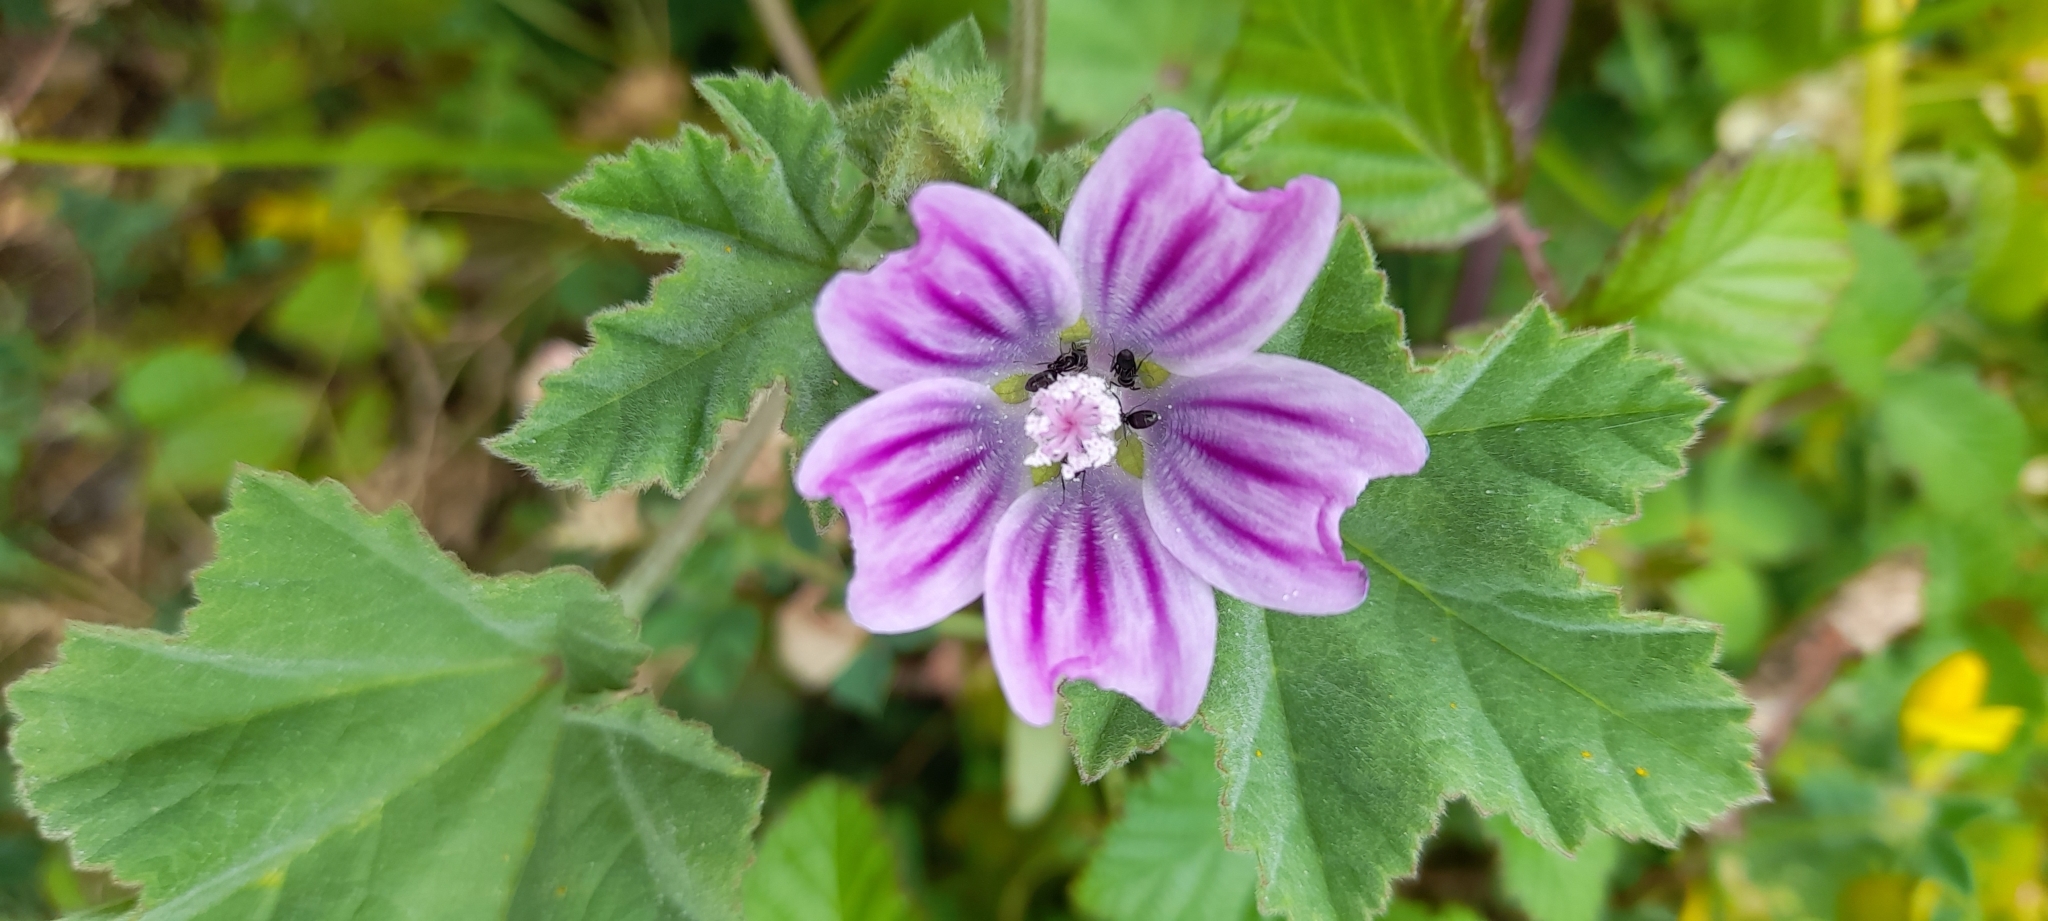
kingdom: Plantae
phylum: Tracheophyta
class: Magnoliopsida
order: Malvales
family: Malvaceae
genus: Malva
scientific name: Malva multiflora
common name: Cheeseweed
